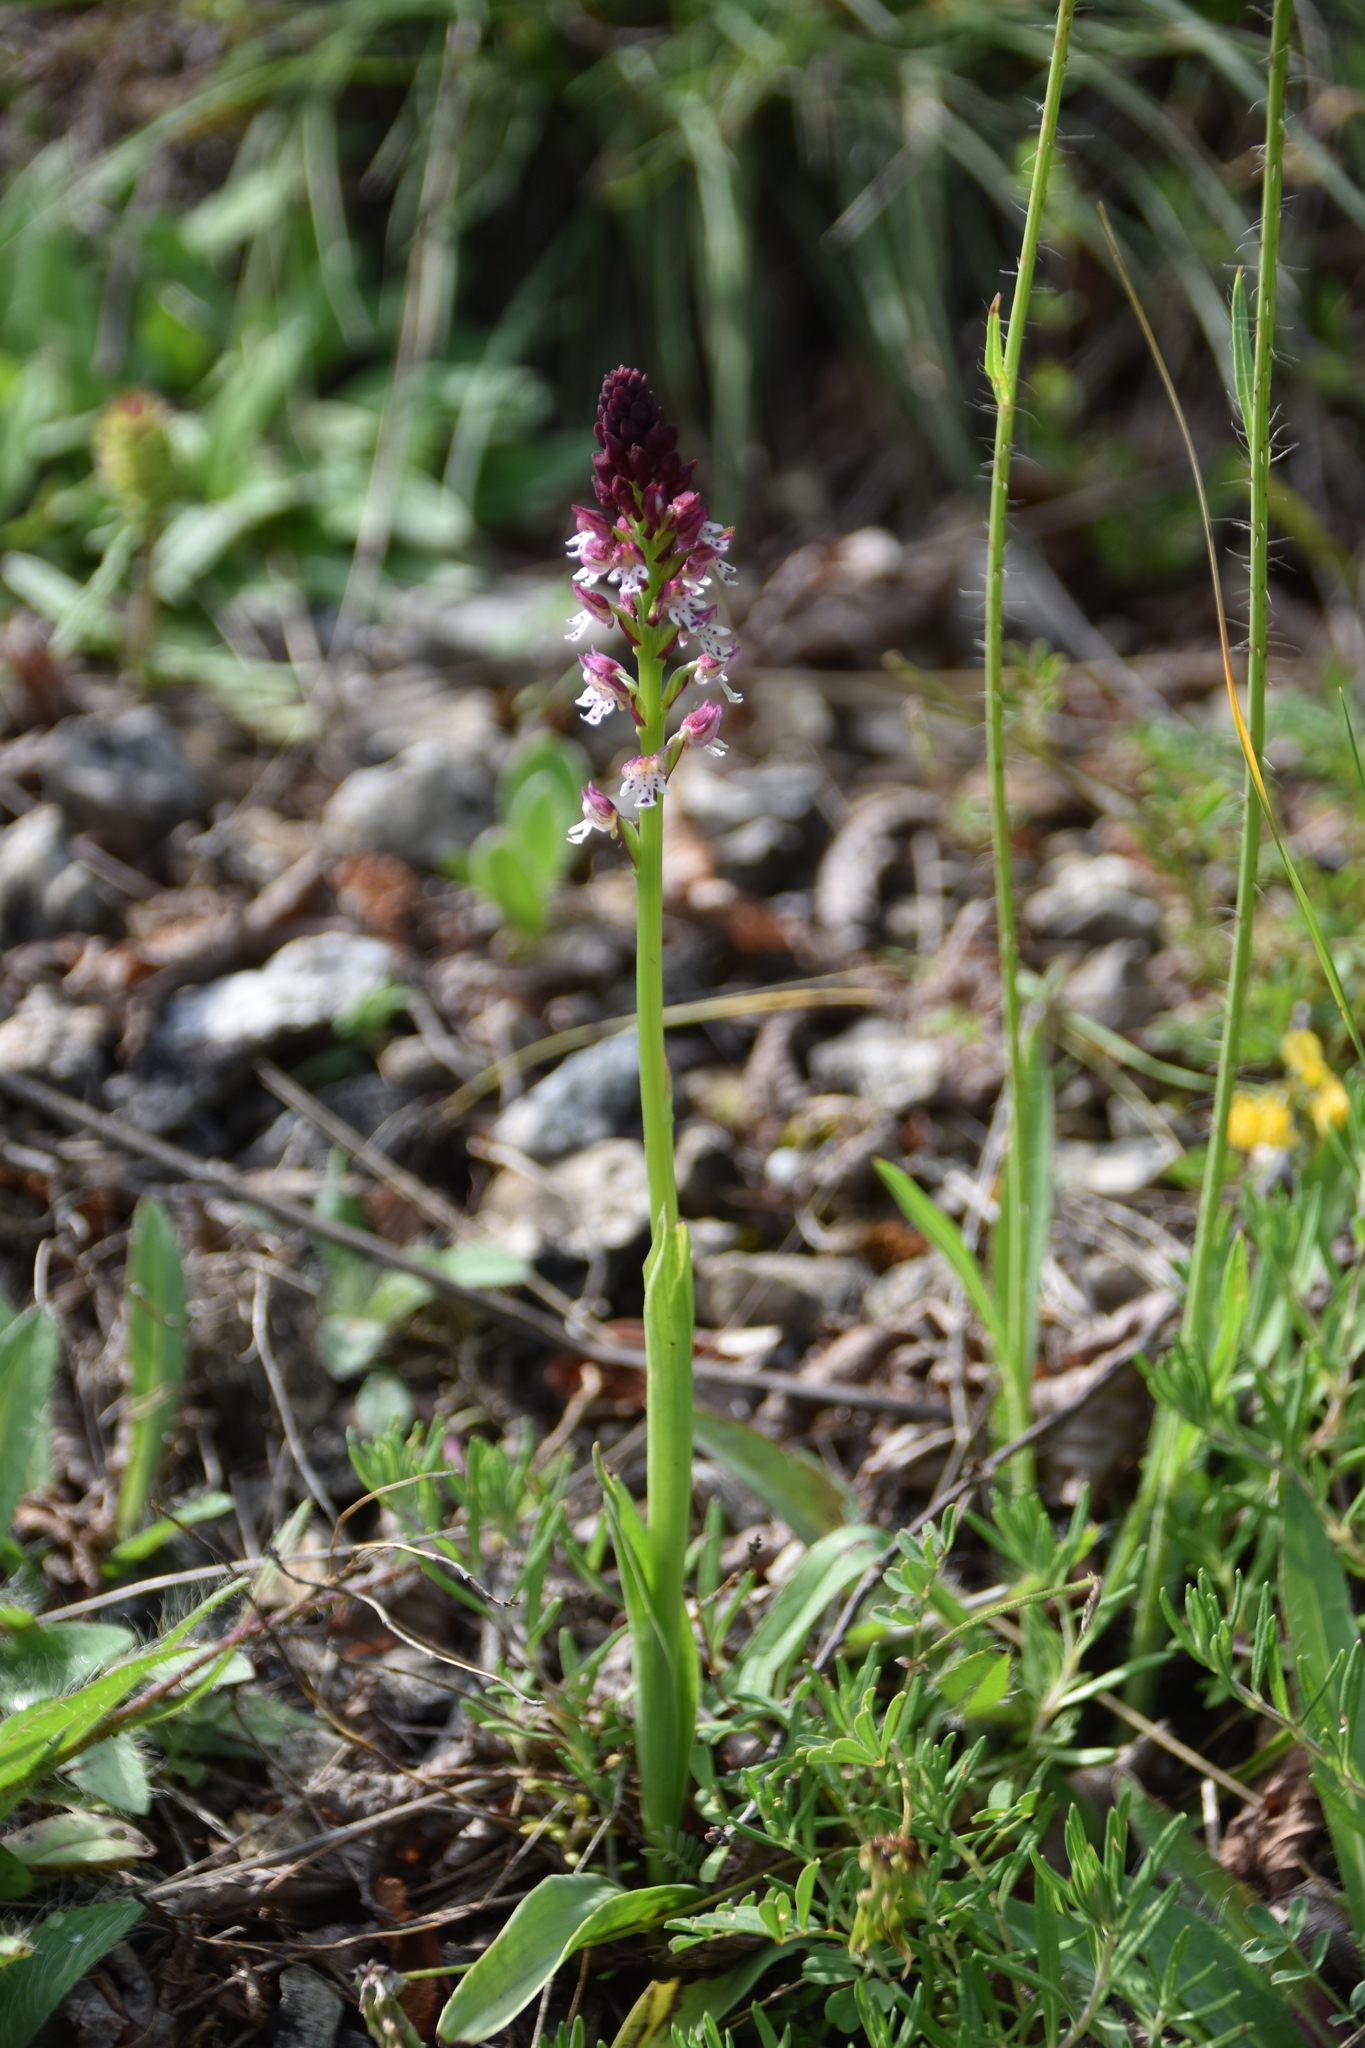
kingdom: Plantae
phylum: Tracheophyta
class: Liliopsida
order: Asparagales
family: Orchidaceae
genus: Neotinea
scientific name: Neotinea ustulata
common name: Burnt orchid
